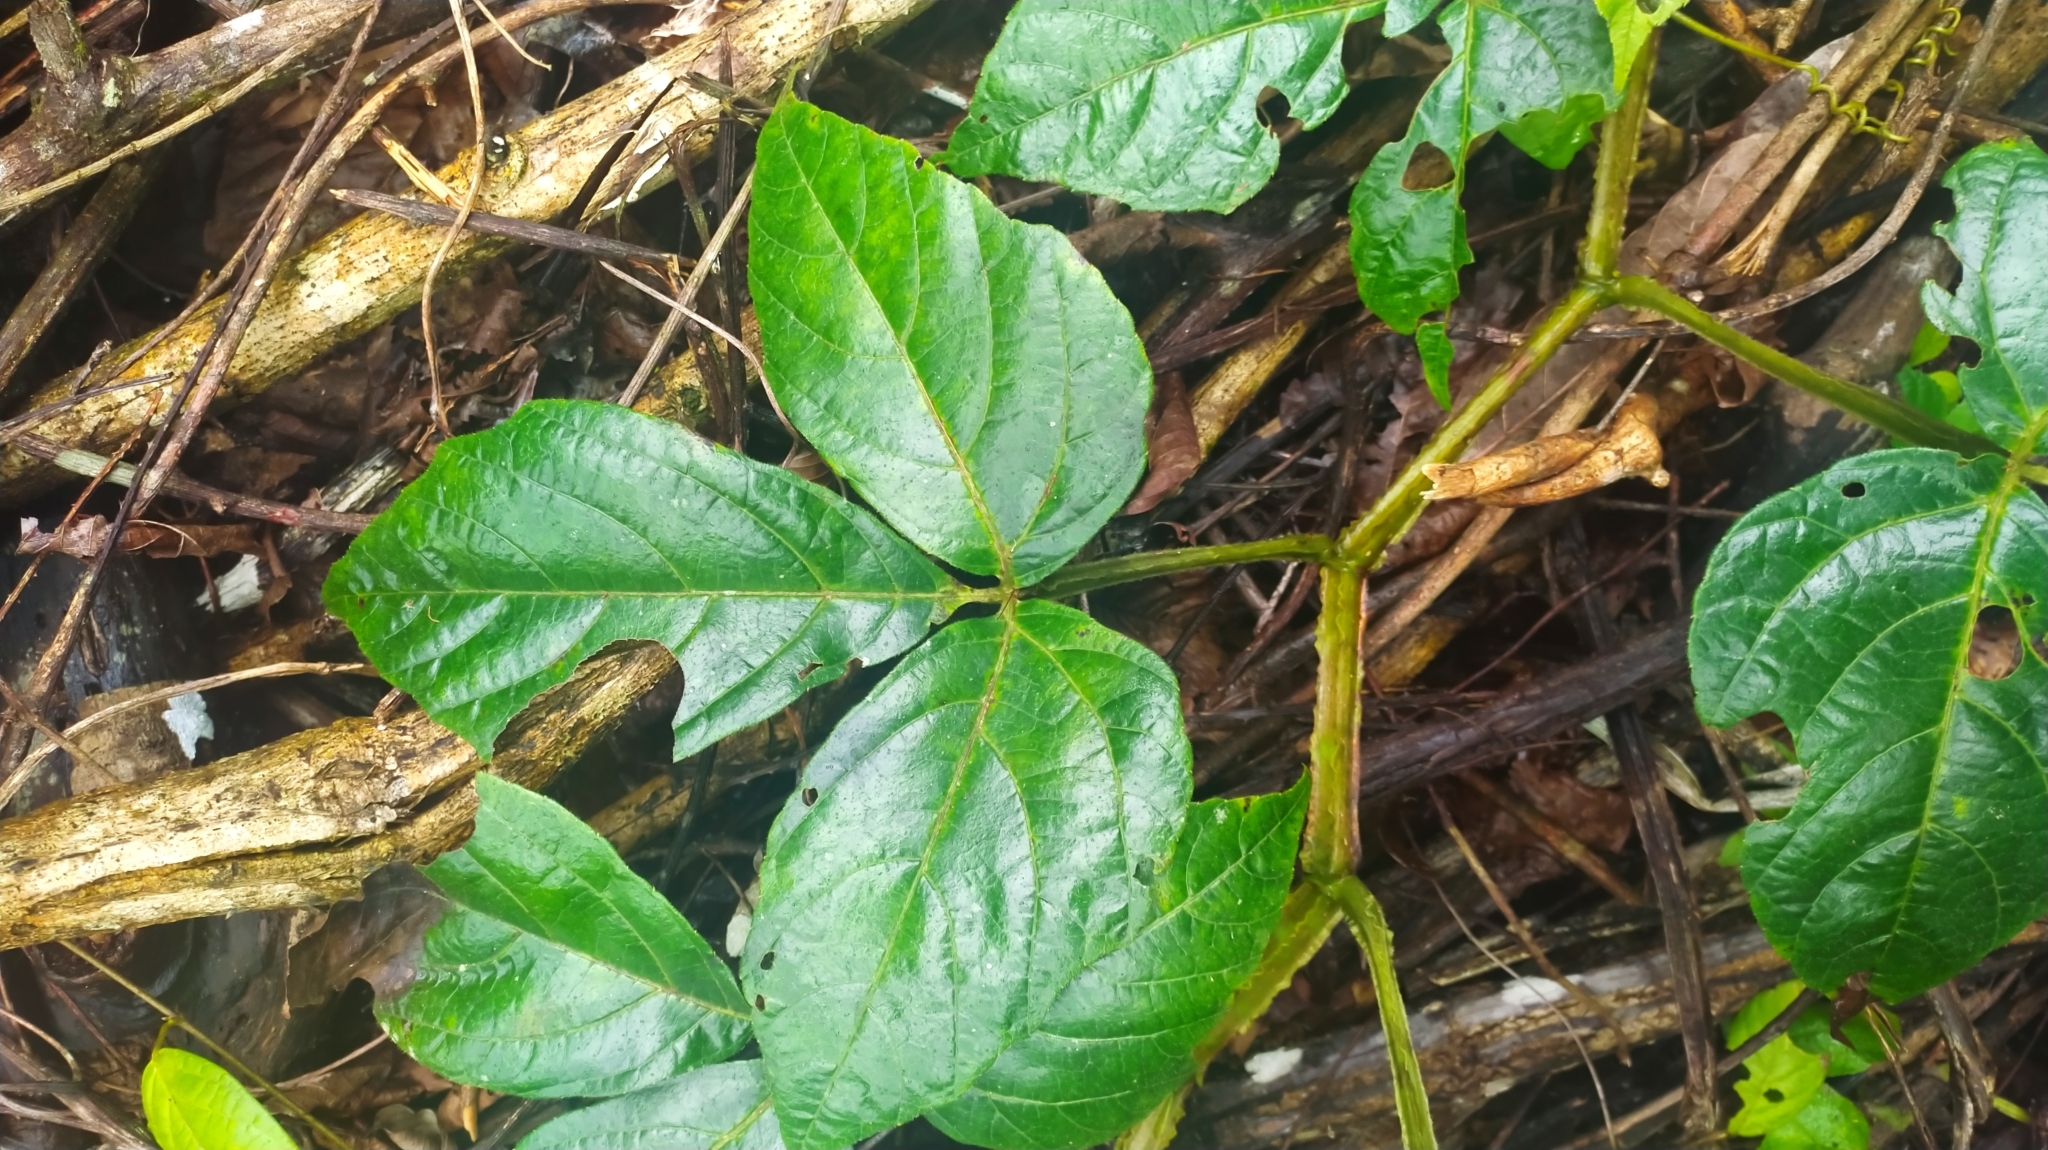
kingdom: Plantae
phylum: Tracheophyta
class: Magnoliopsida
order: Vitales
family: Vitaceae
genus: Cissus
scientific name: Cissus haematantha
